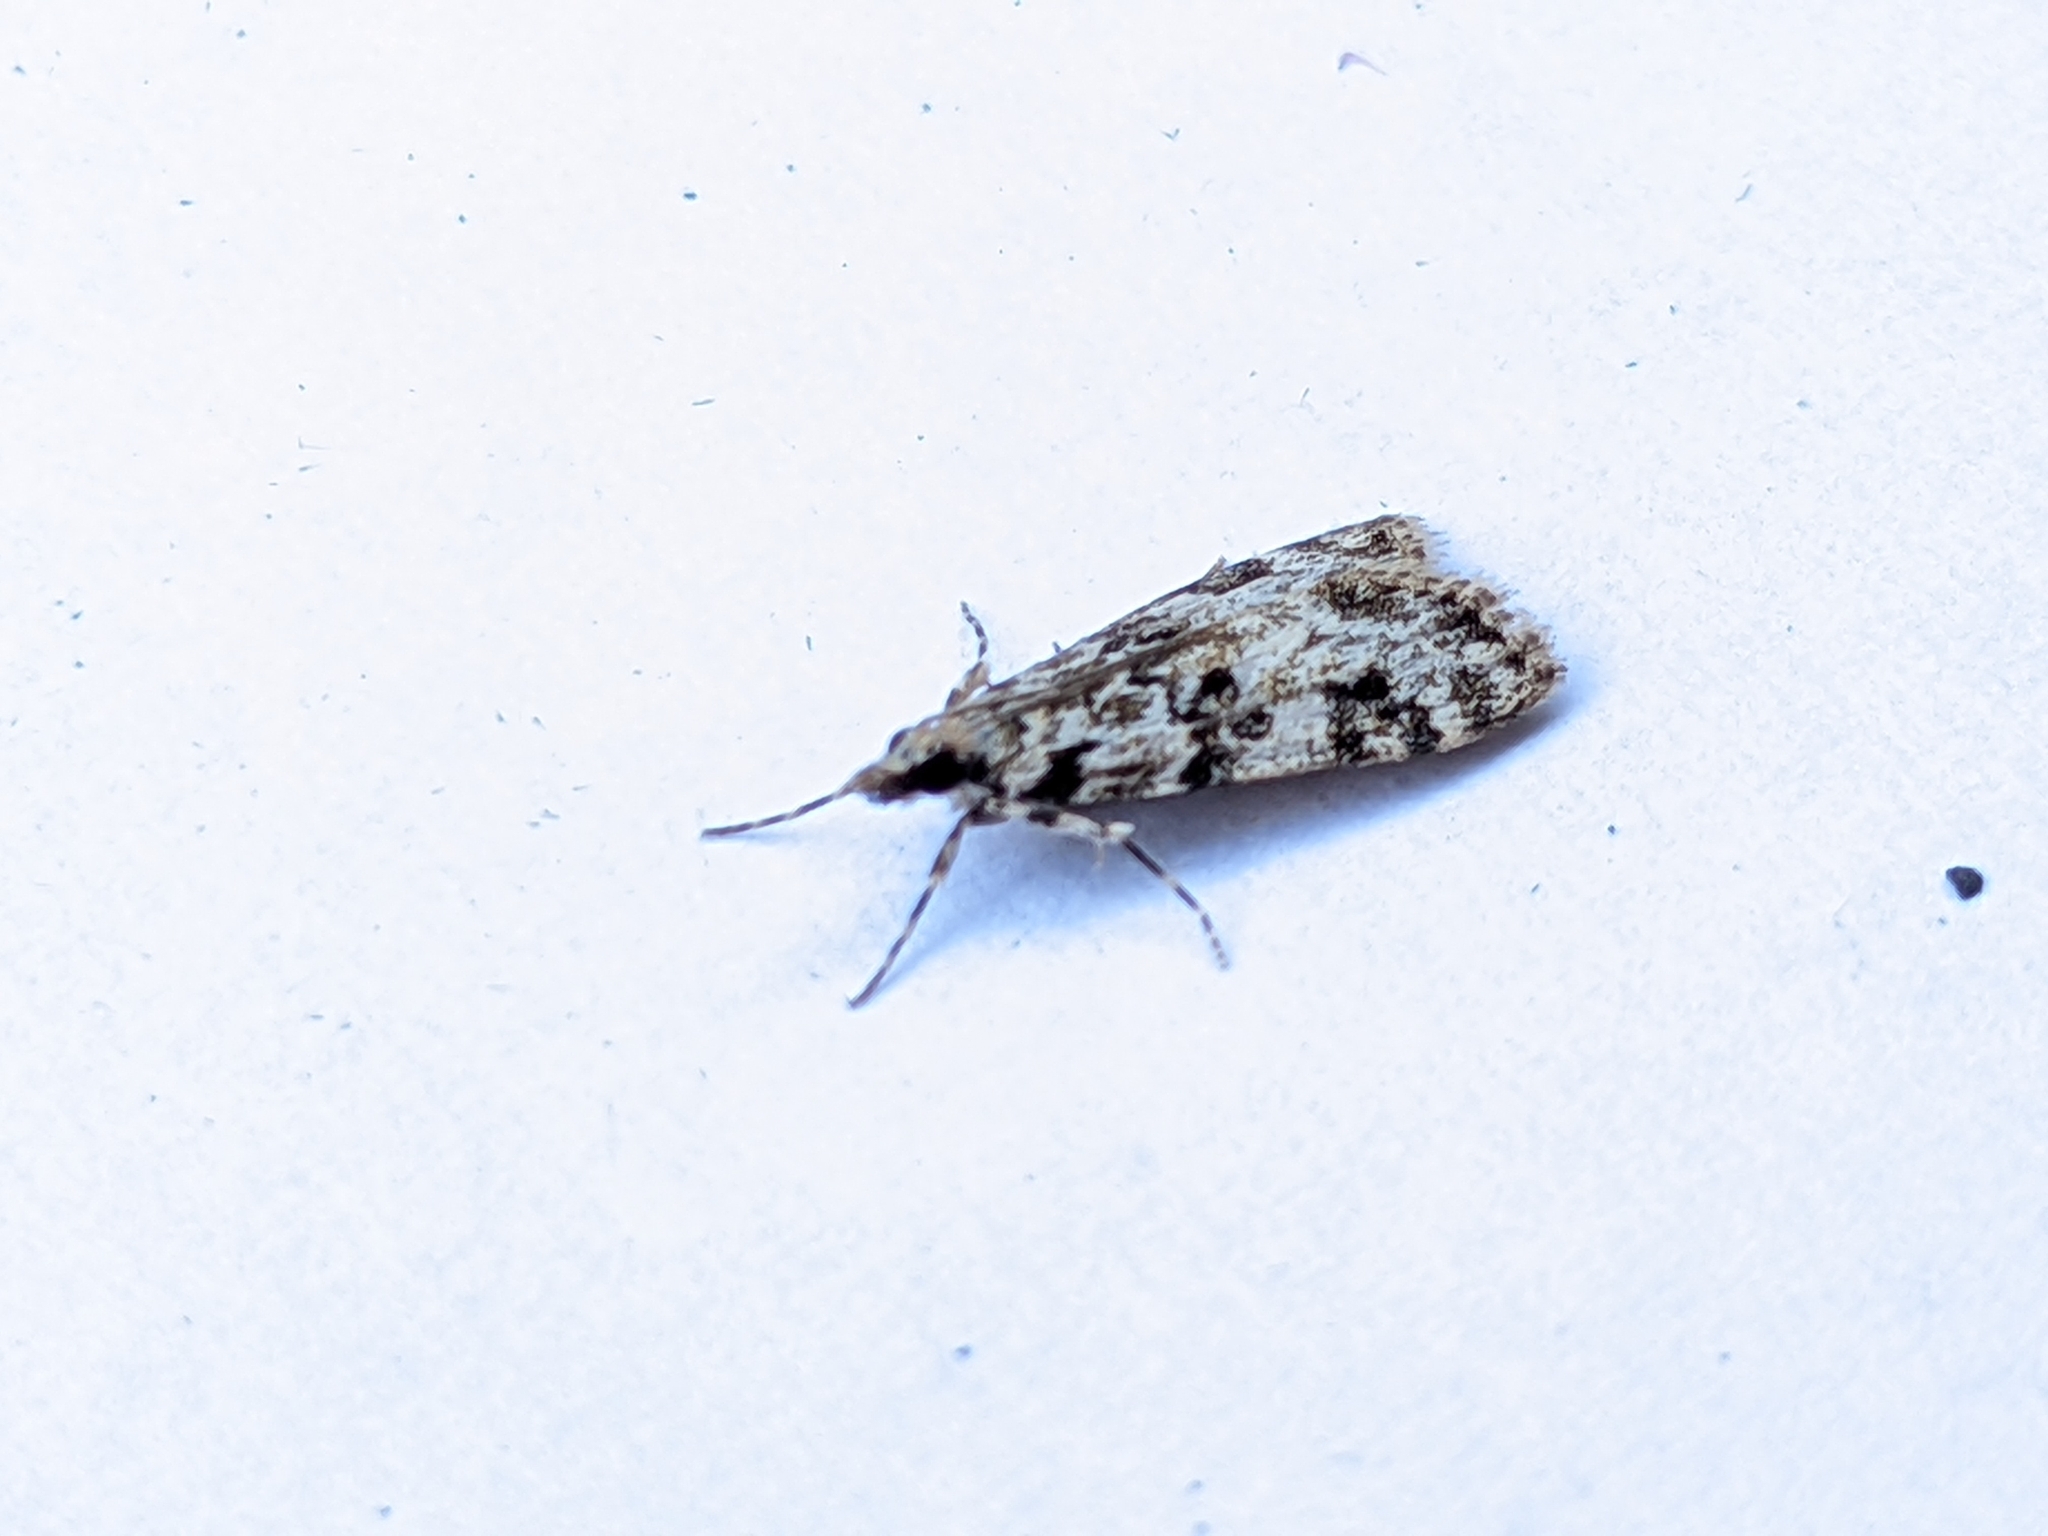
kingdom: Animalia
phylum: Arthropoda
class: Insecta
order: Lepidoptera
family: Crambidae
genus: Eudonia
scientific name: Eudonia delunella
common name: Pied grey
